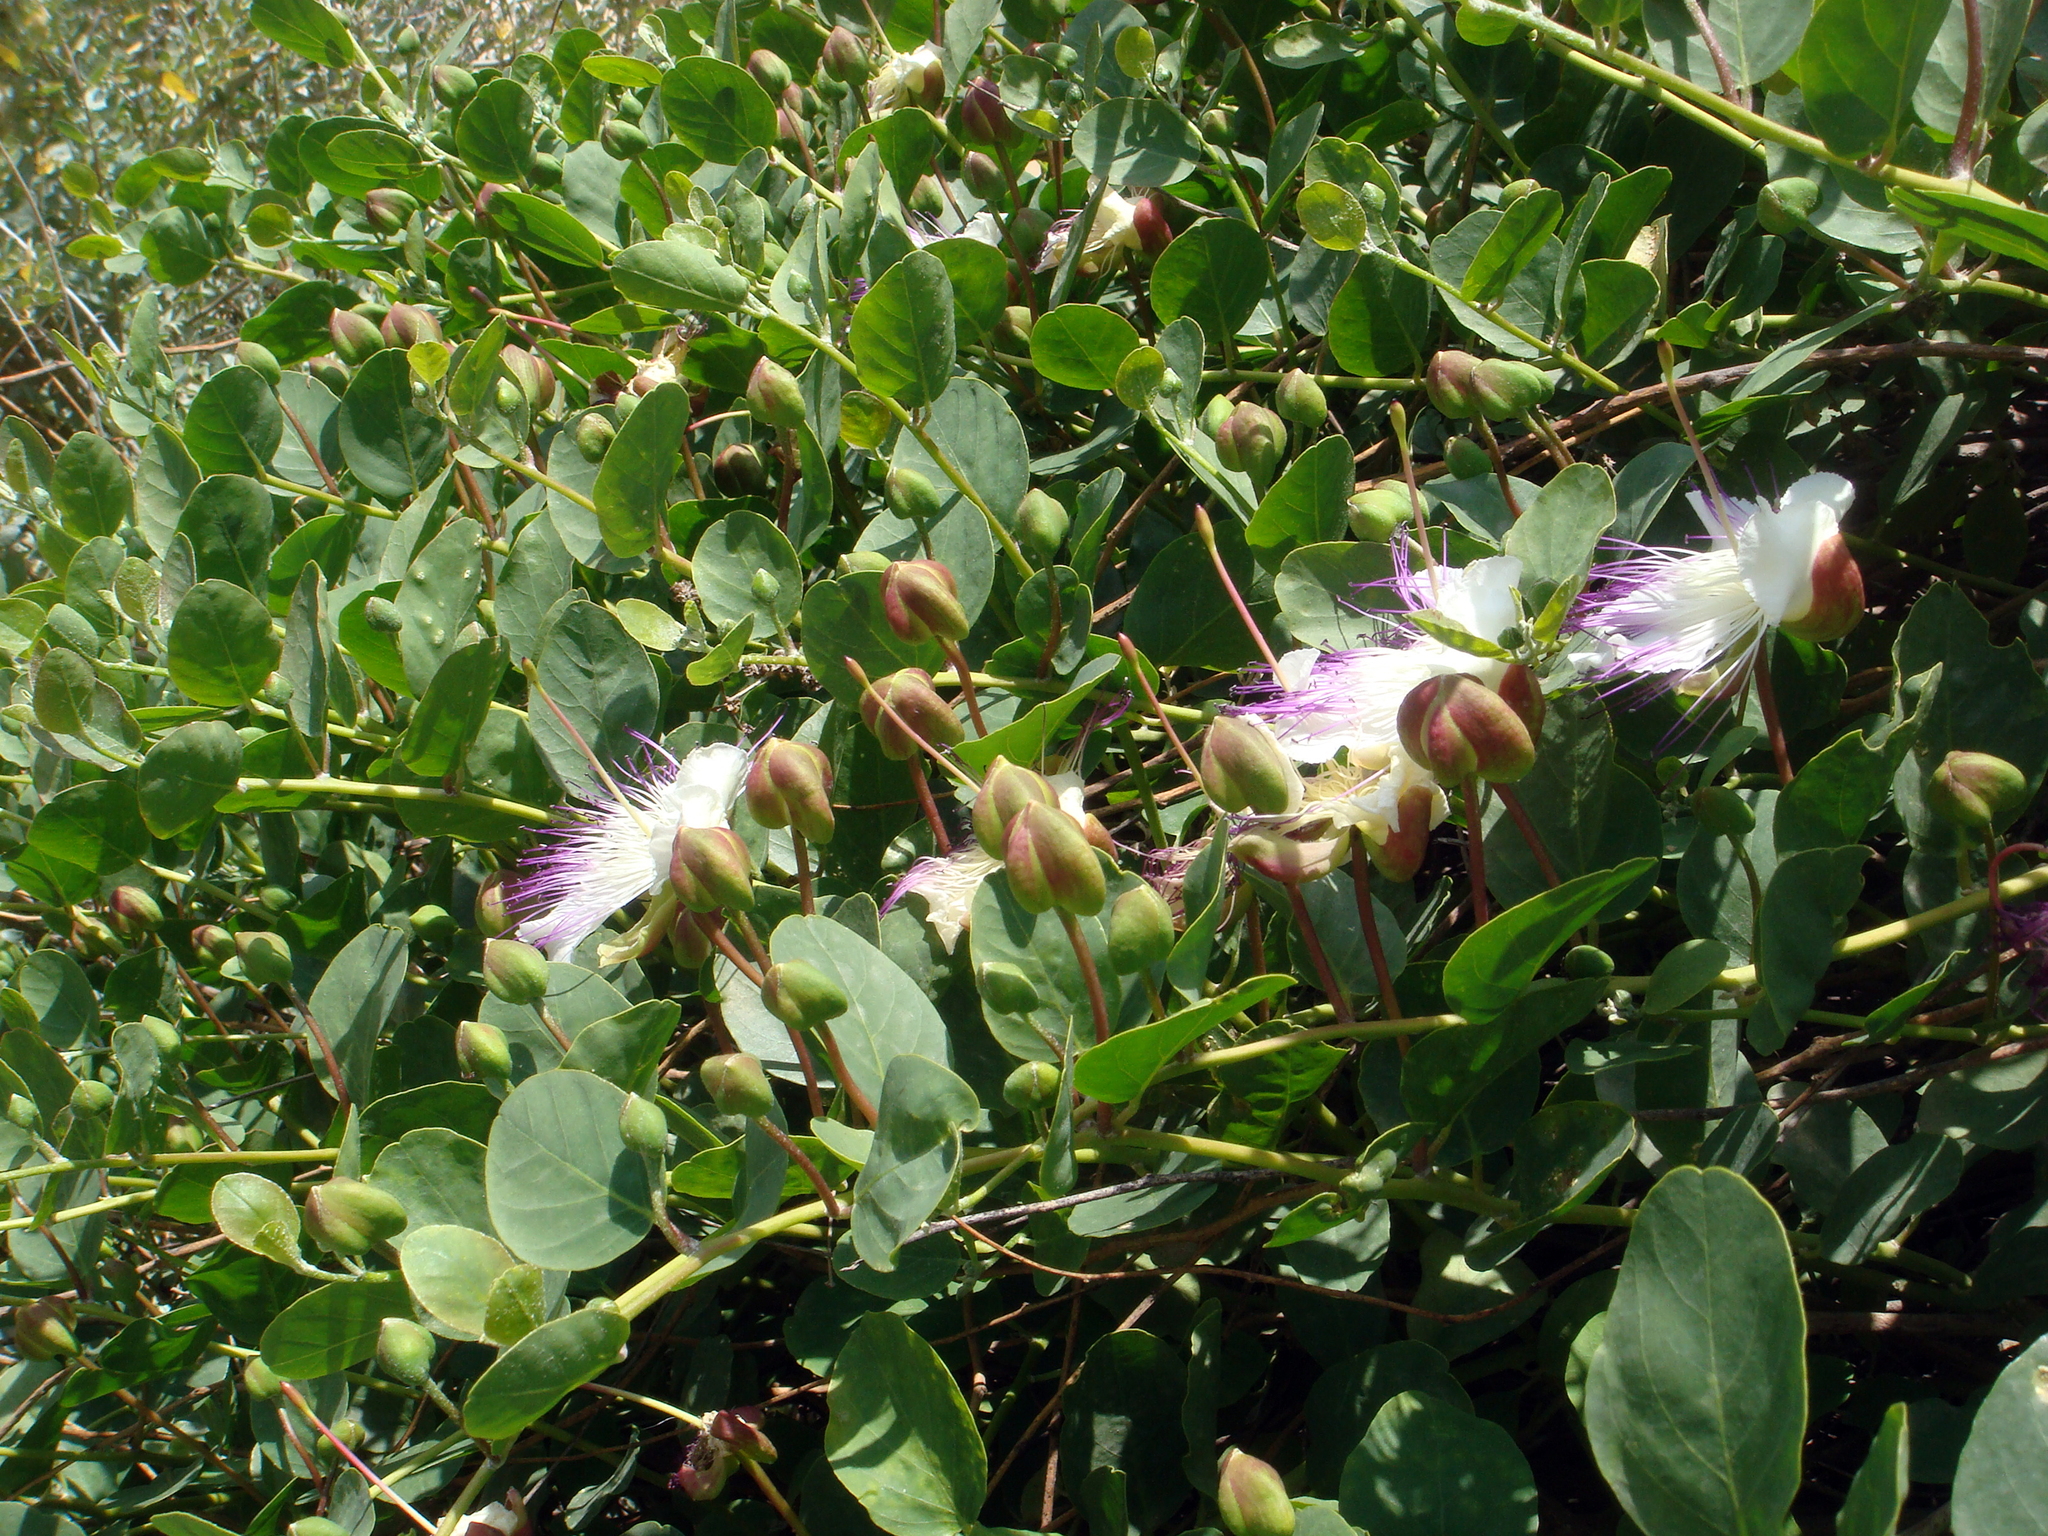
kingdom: Plantae
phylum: Tracheophyta
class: Magnoliopsida
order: Brassicales
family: Capparaceae
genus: Capparis
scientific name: Capparis spinosa
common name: Caper
